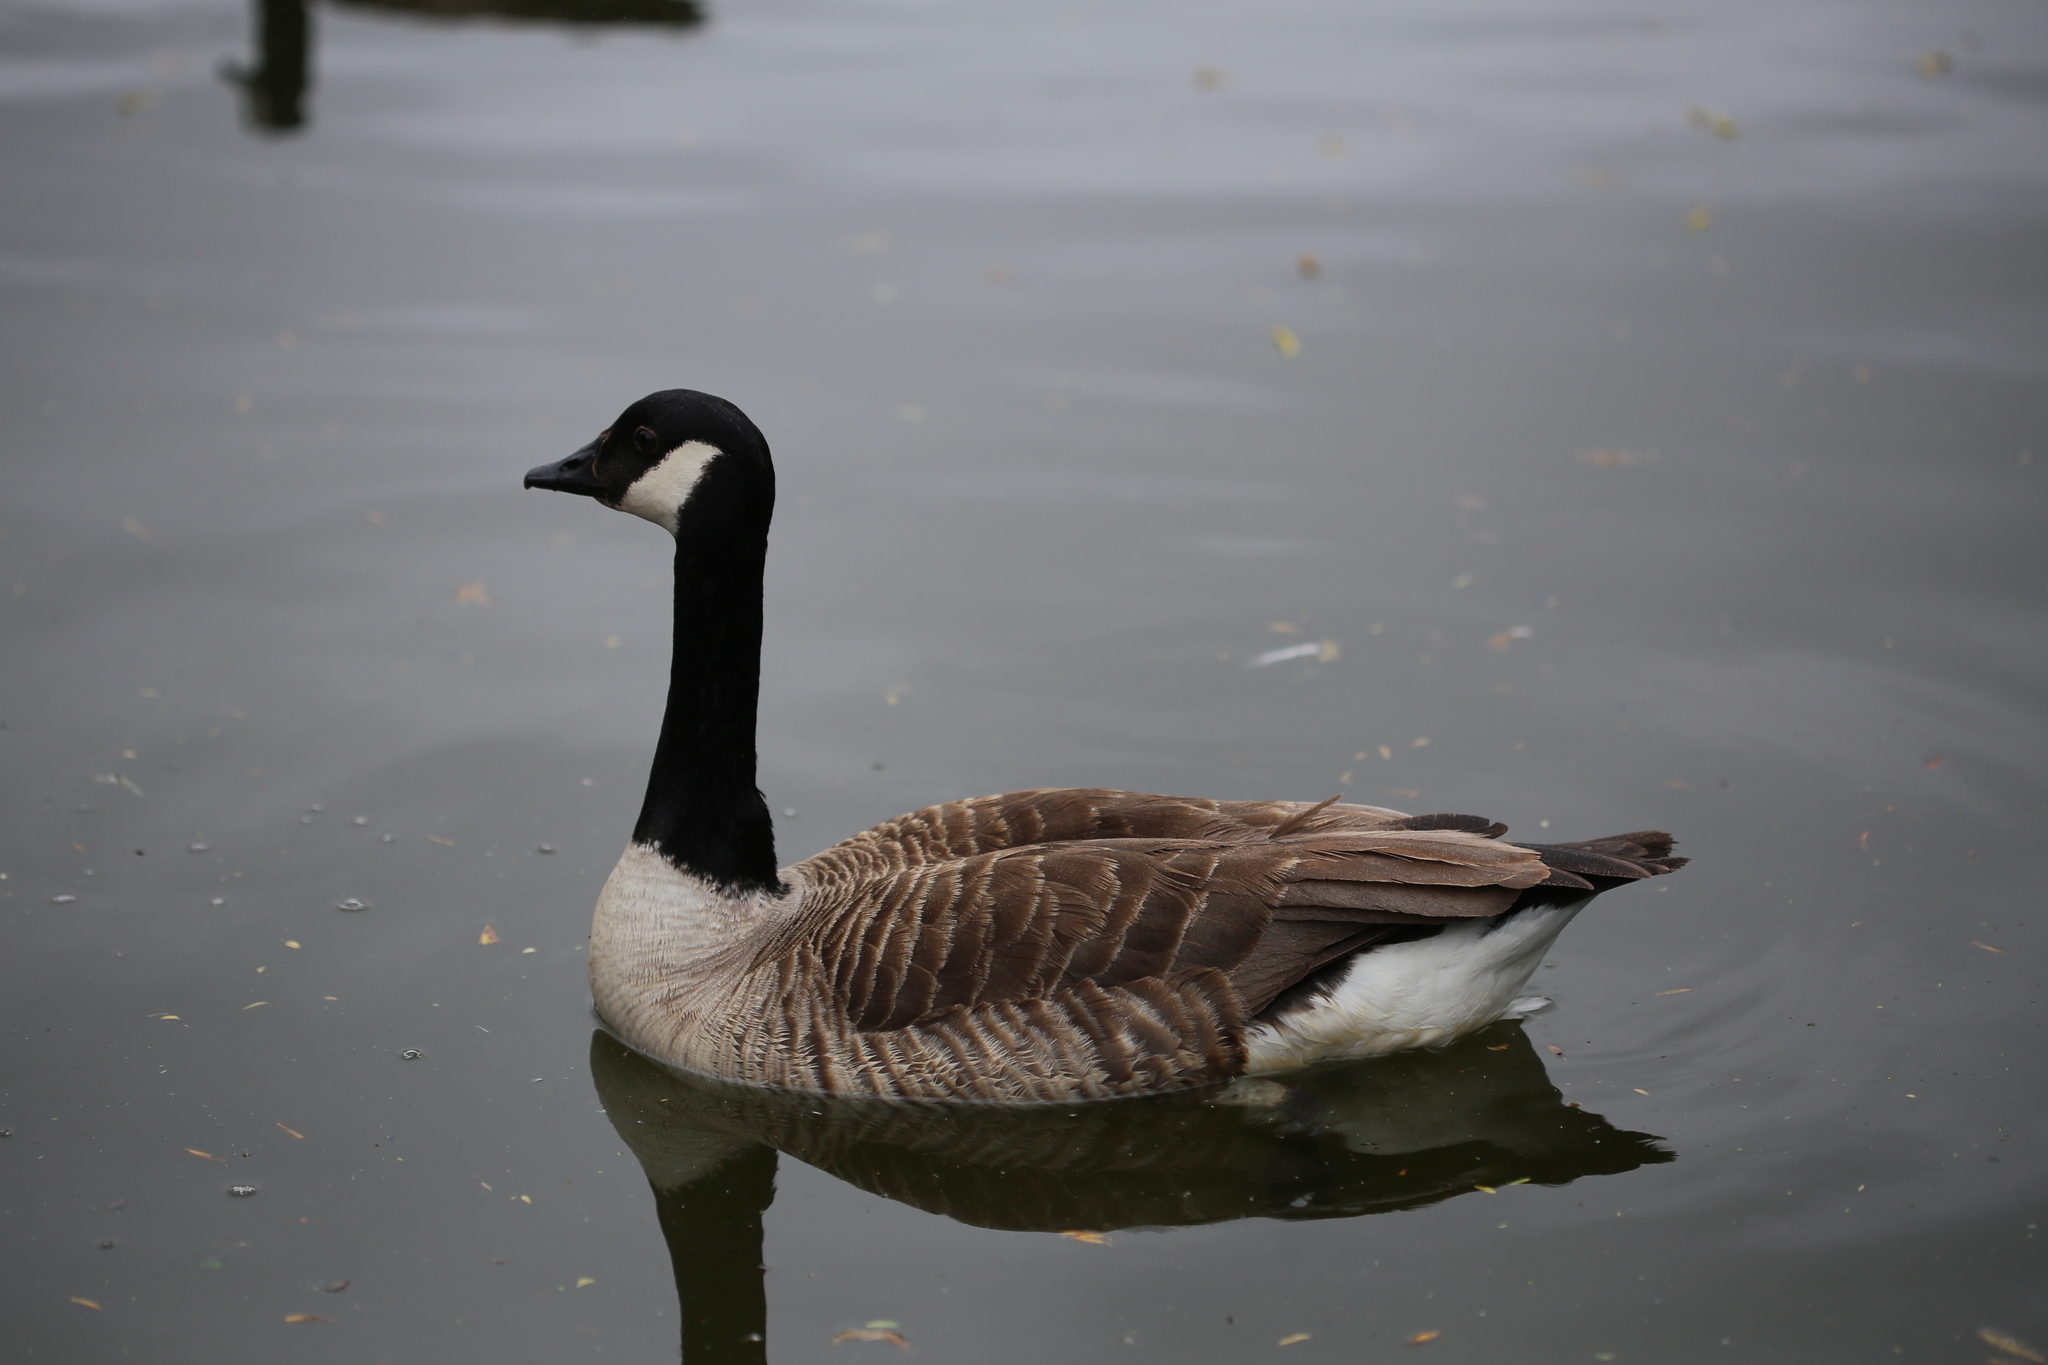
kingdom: Animalia
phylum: Chordata
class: Aves
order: Anseriformes
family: Anatidae
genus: Branta
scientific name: Branta canadensis
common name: Canada goose
